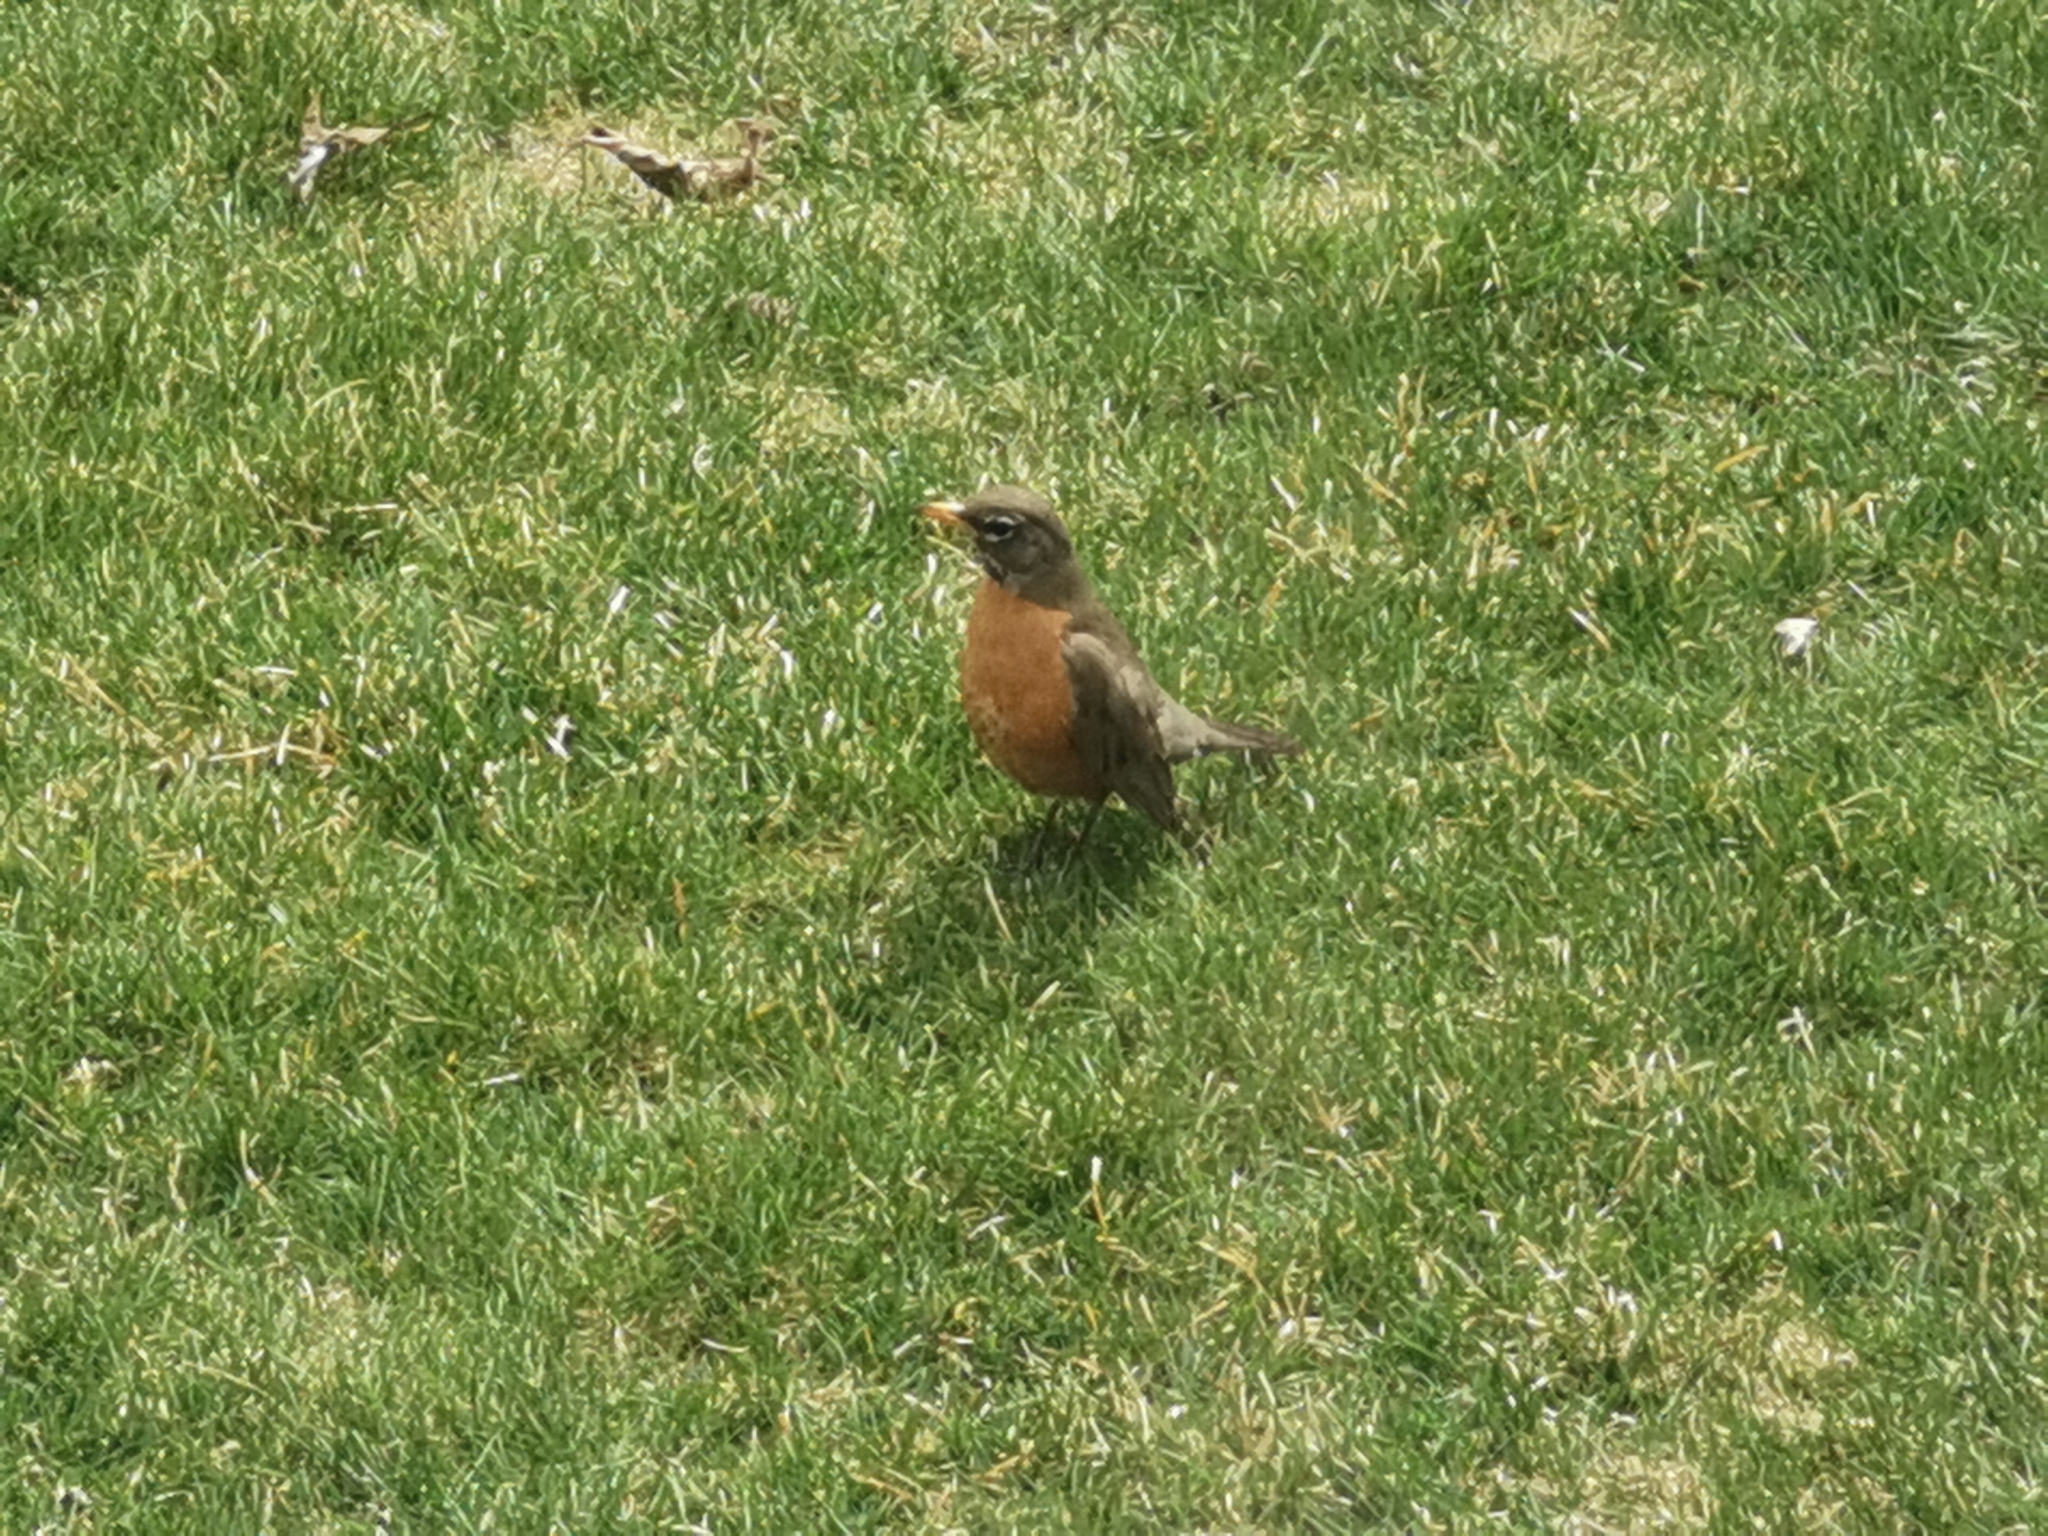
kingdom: Animalia
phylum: Chordata
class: Aves
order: Passeriformes
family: Turdidae
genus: Turdus
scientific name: Turdus migratorius
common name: American robin
